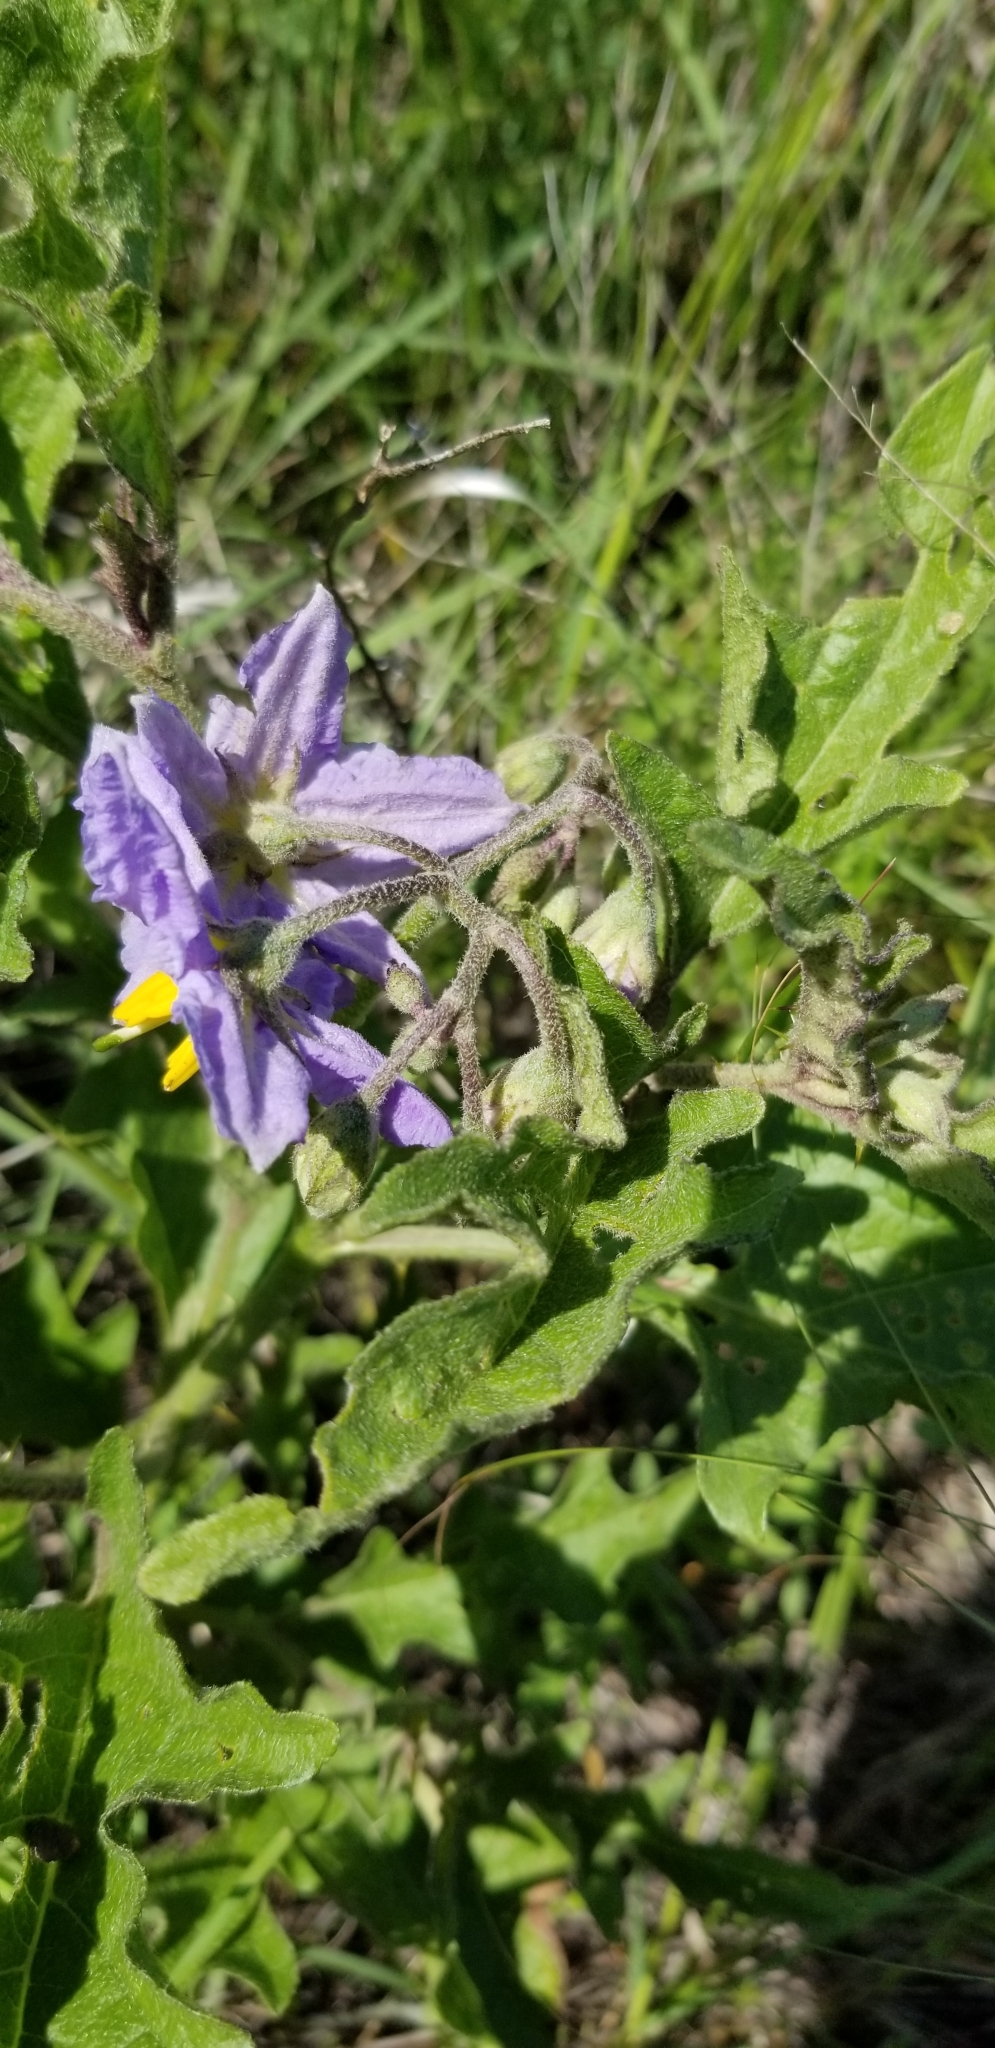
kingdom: Plantae
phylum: Tracheophyta
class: Magnoliopsida
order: Solanales
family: Solanaceae
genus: Solanum
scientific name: Solanum dimidiatum
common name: Carolina horse-nettle
